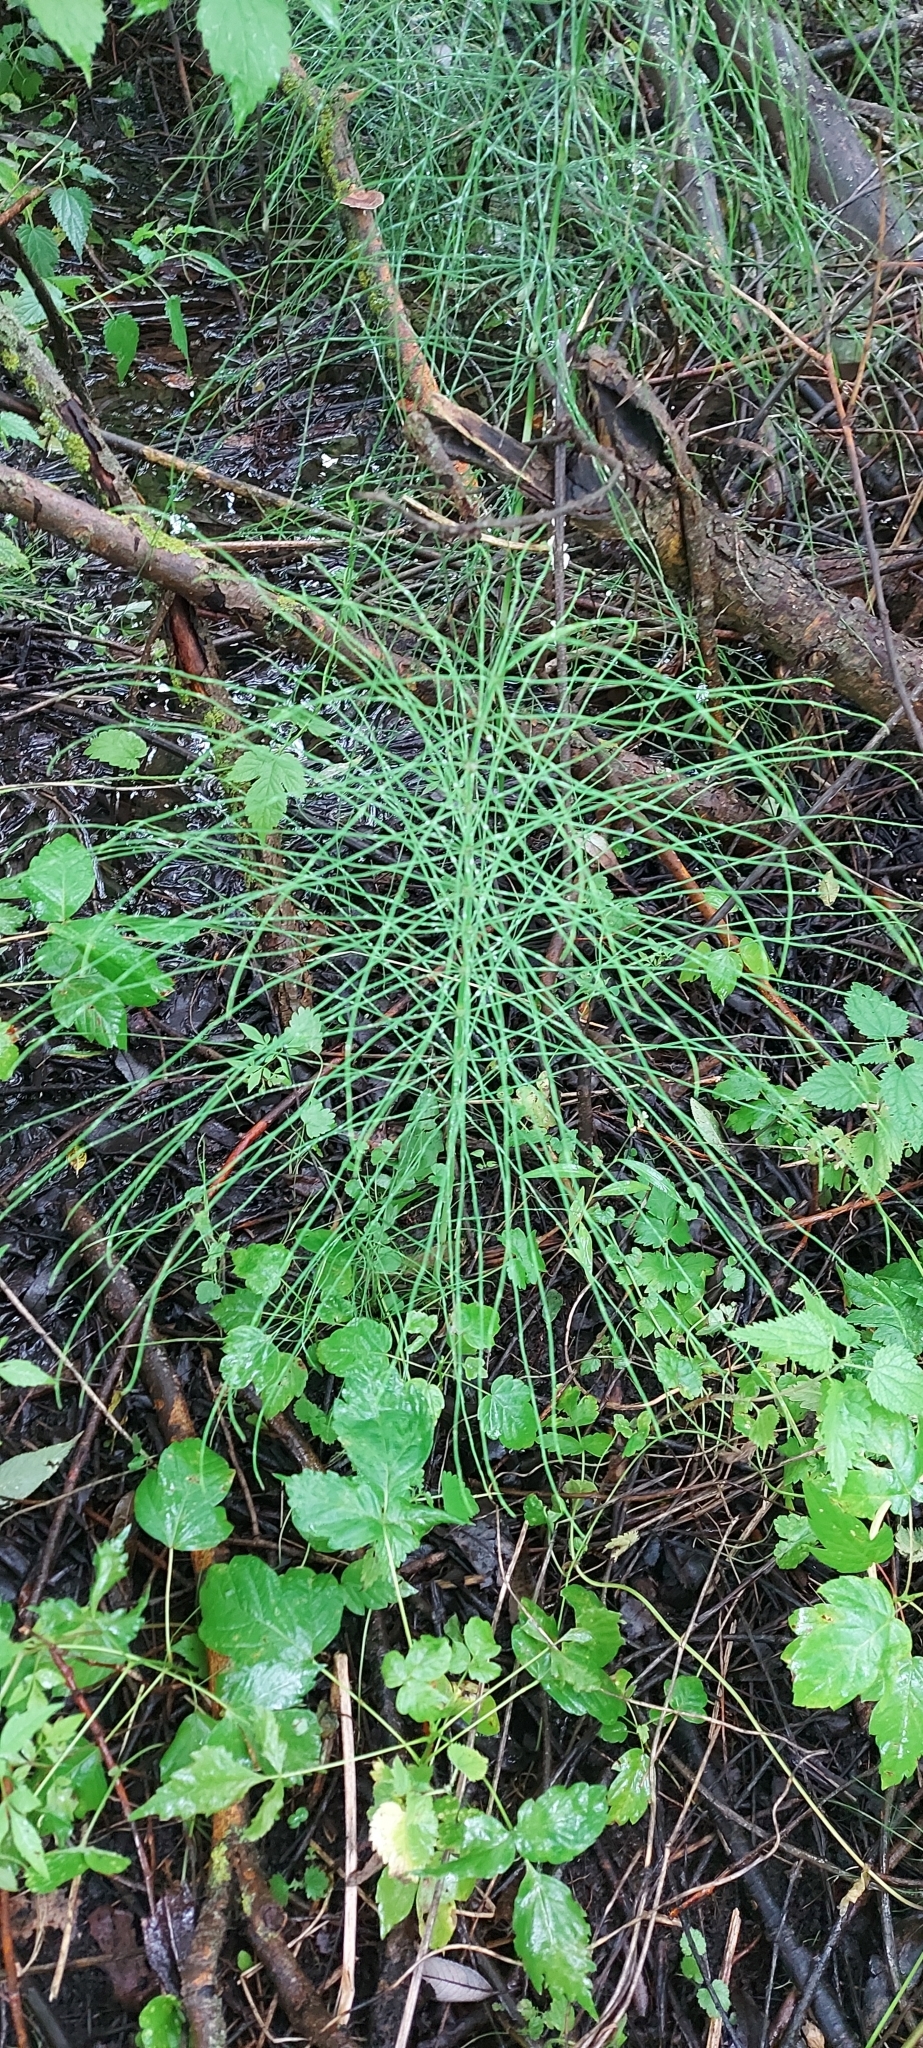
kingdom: Plantae
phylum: Tracheophyta
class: Polypodiopsida
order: Equisetales
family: Equisetaceae
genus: Equisetum
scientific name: Equisetum arvense
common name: Field horsetail
